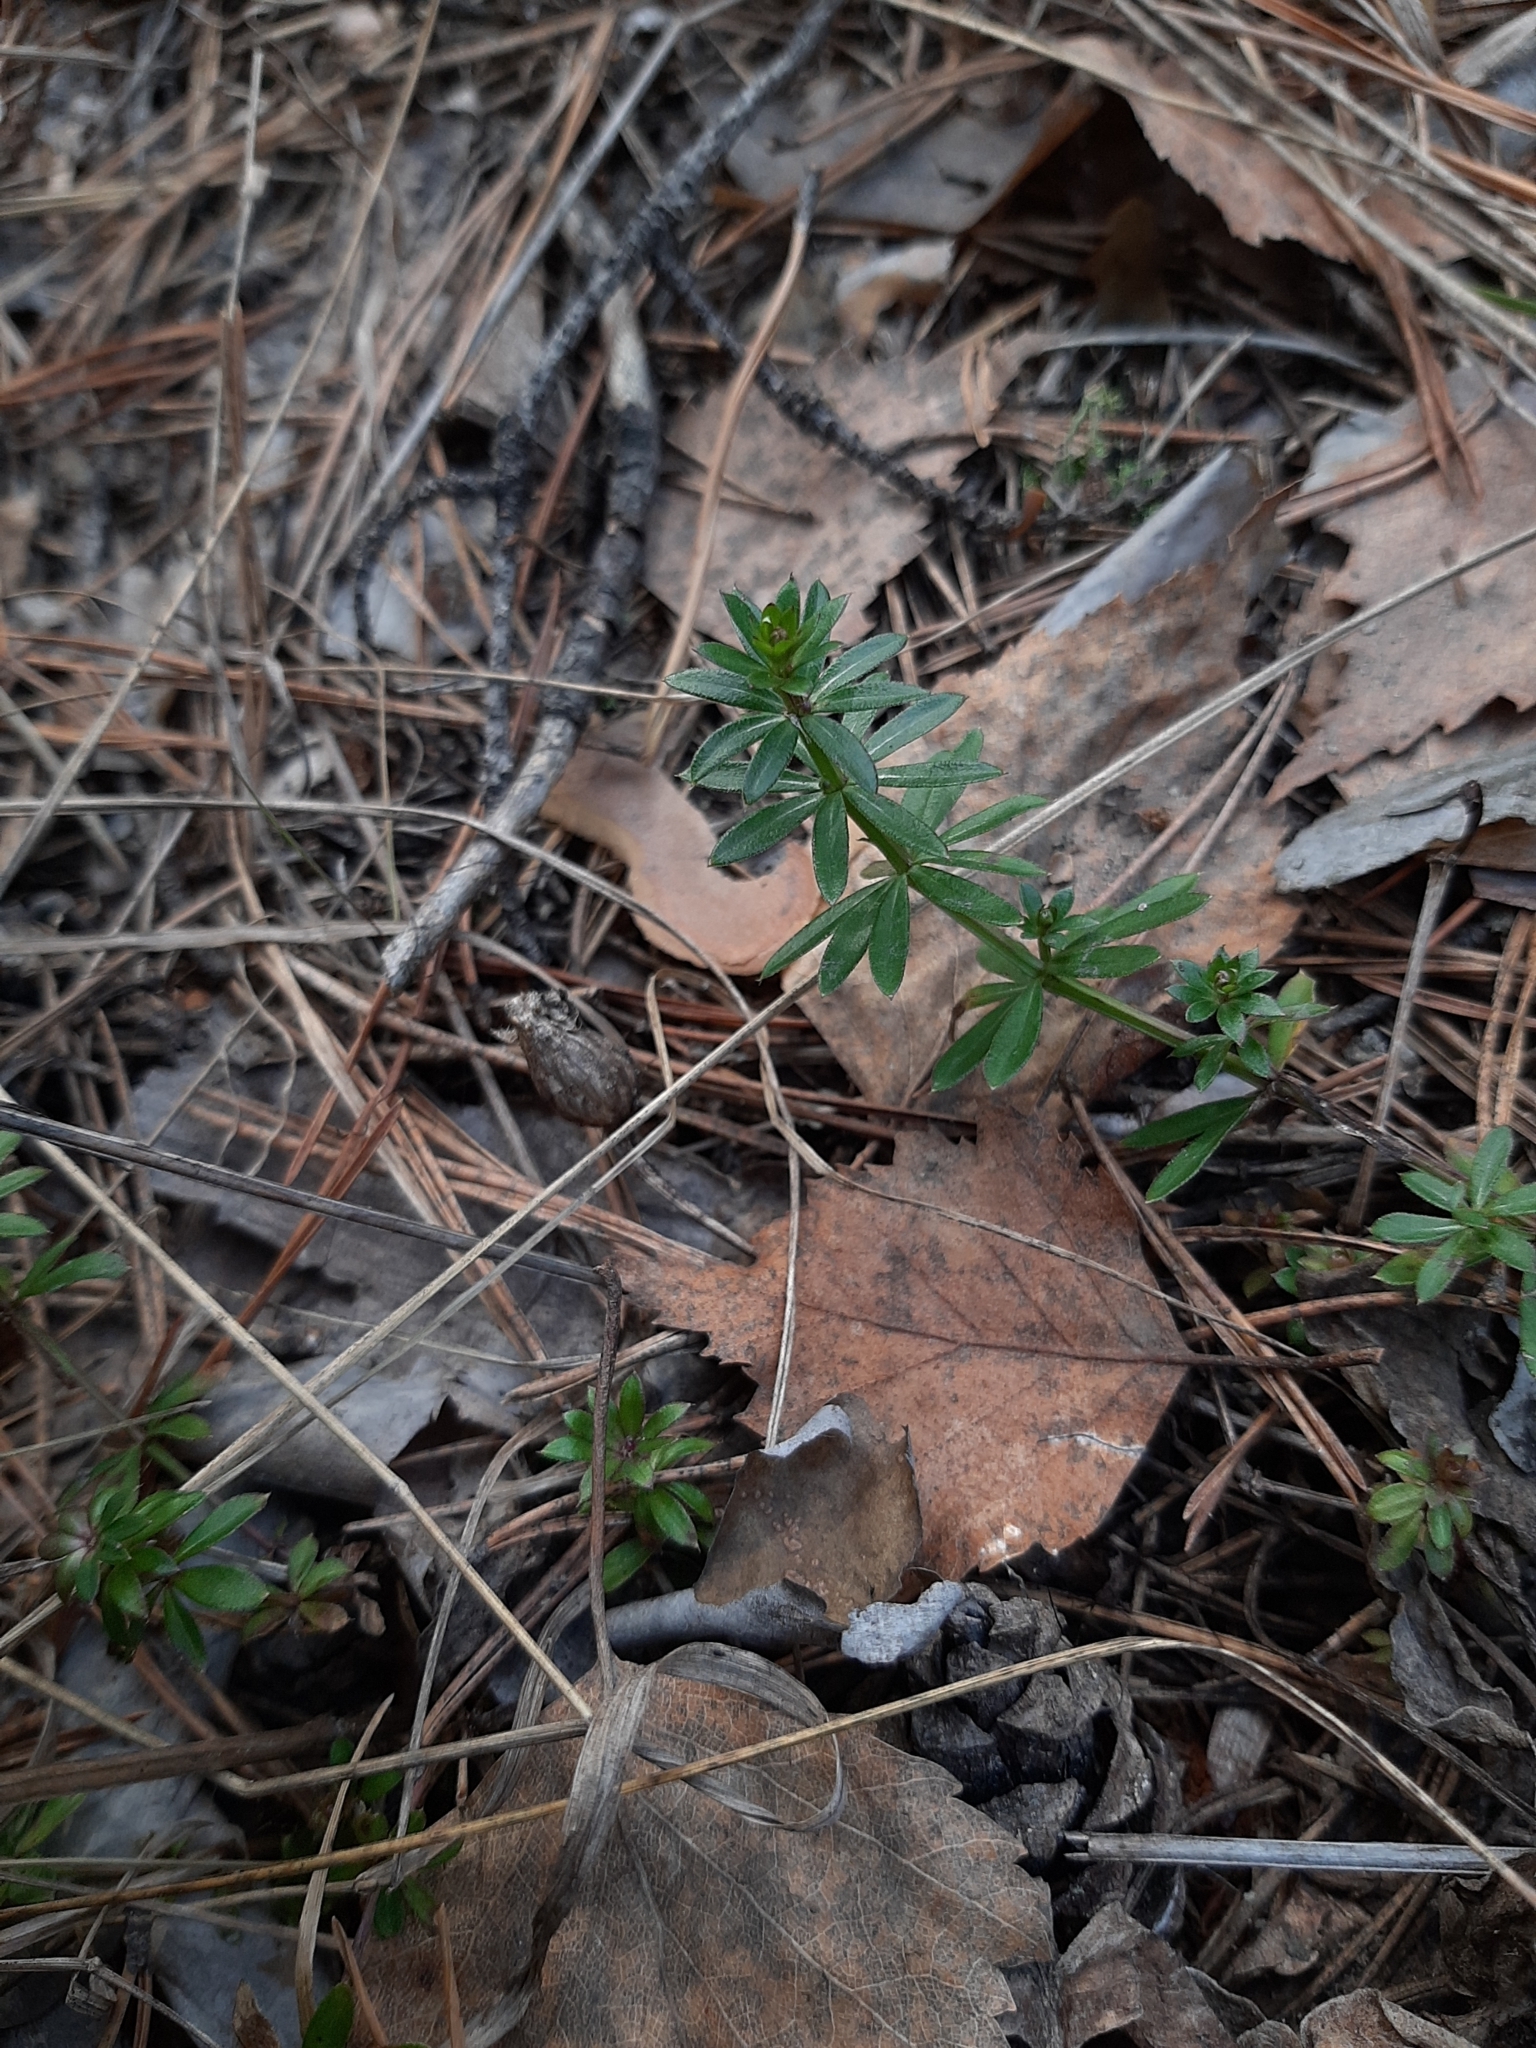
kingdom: Plantae
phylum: Tracheophyta
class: Magnoliopsida
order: Gentianales
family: Rubiaceae
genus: Galium
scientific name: Galium mollugo
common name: Hedge bedstraw
